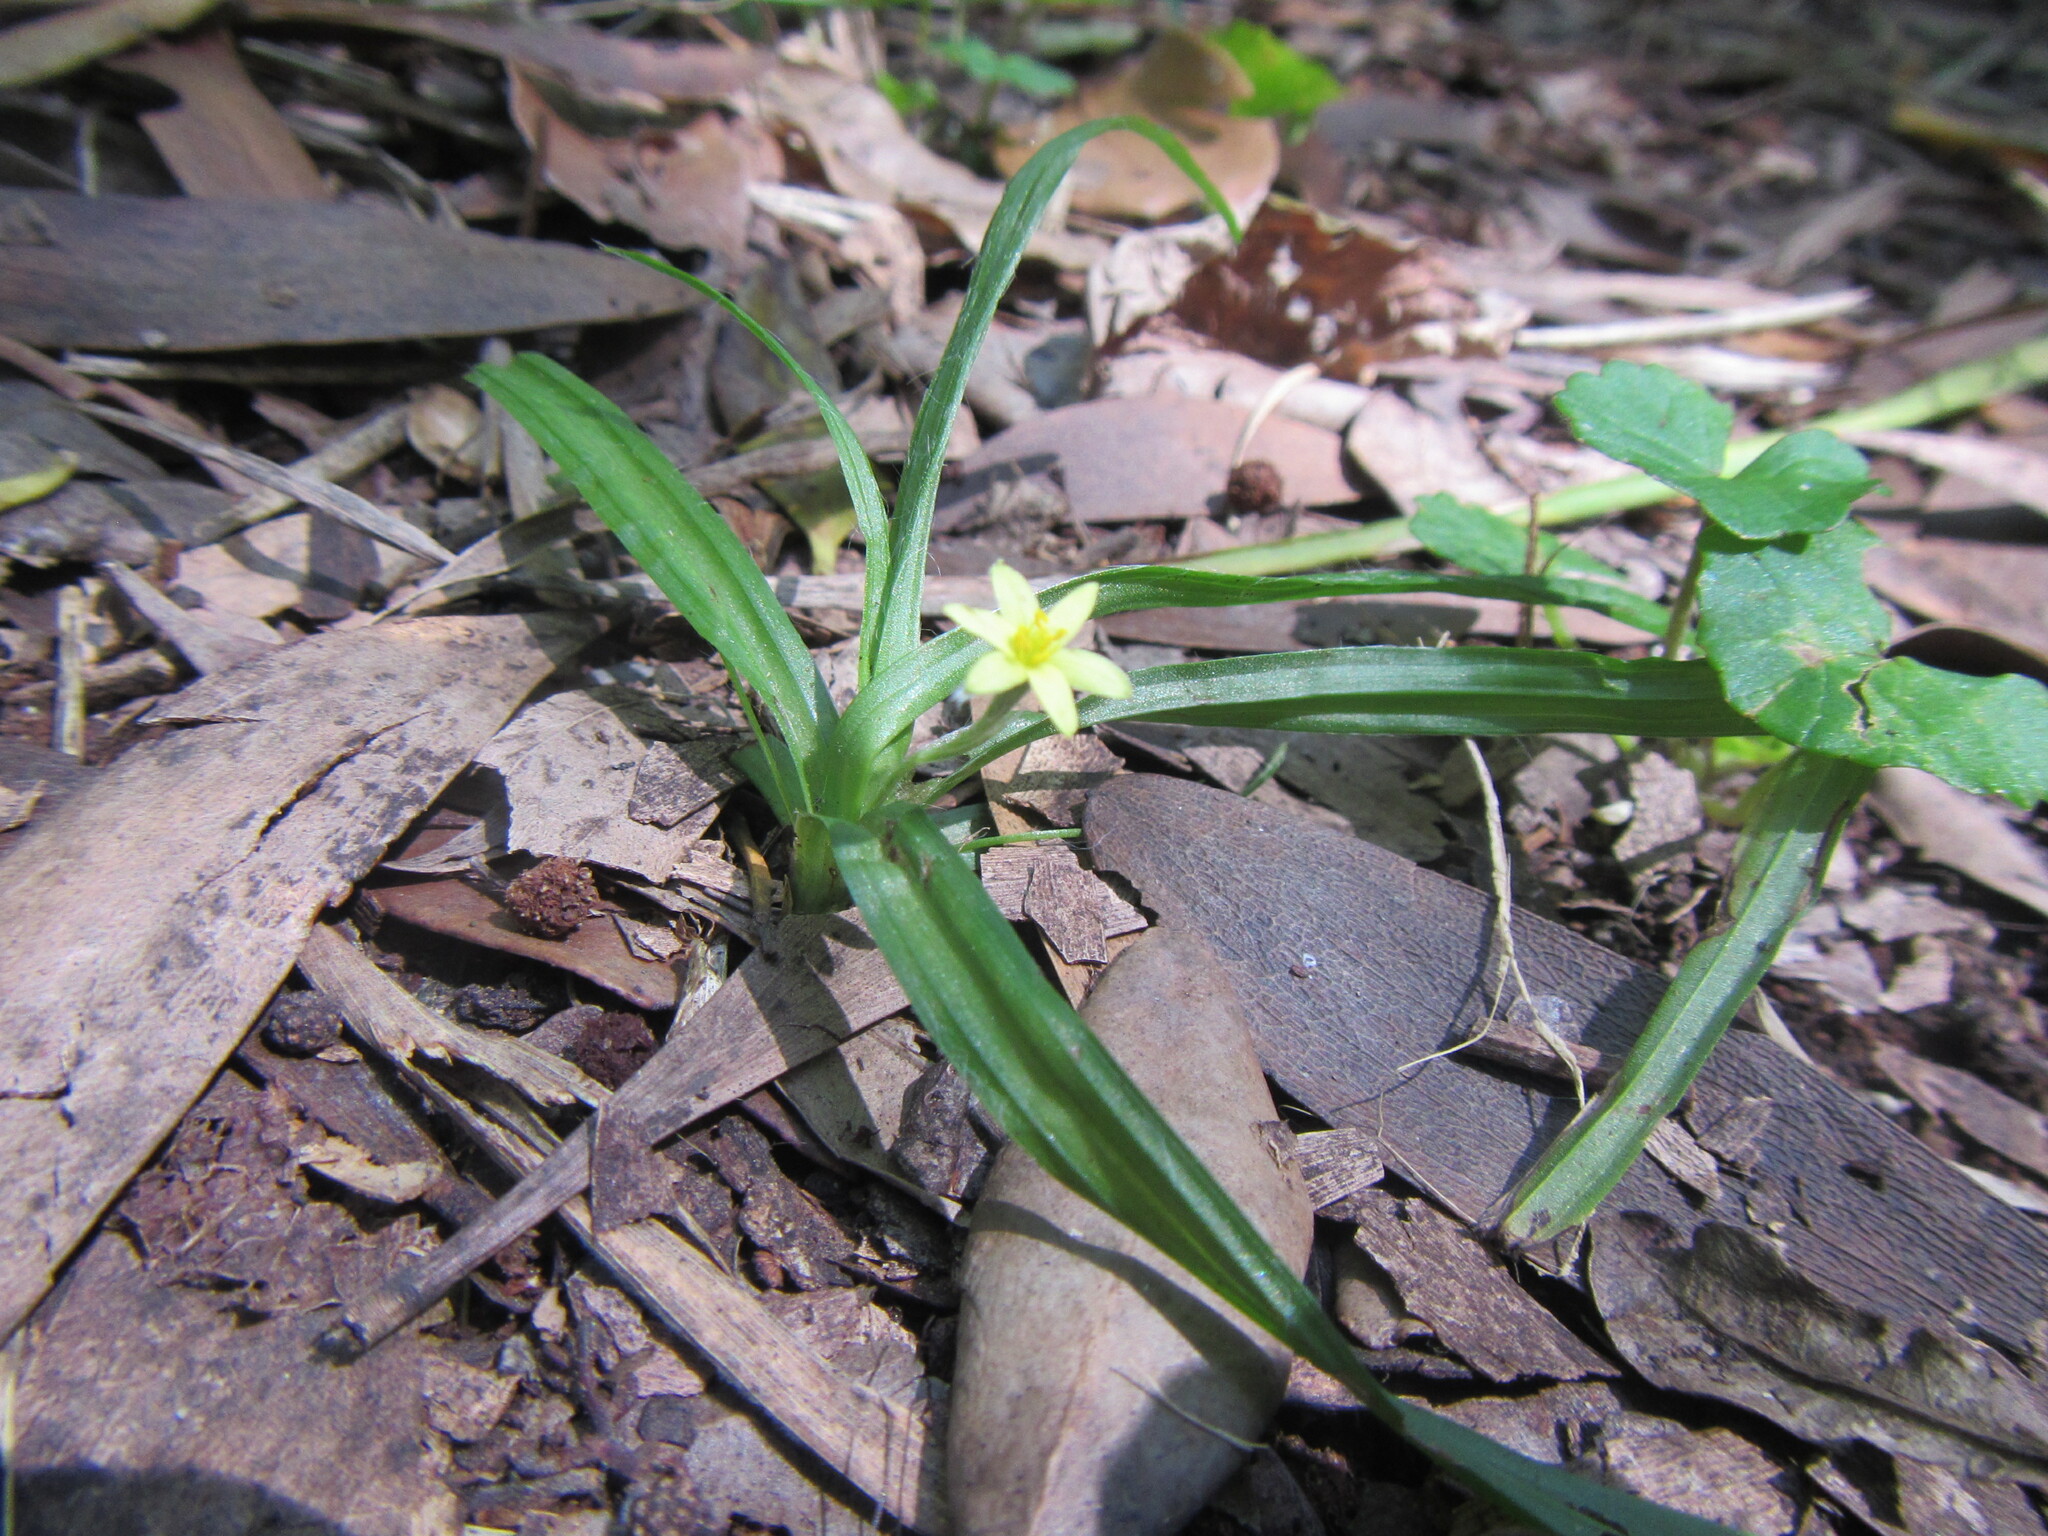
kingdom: Plantae
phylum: Tracheophyta
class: Liliopsida
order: Asparagales
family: Hypoxidaceae
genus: Pauridia
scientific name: Pauridia flaccida
